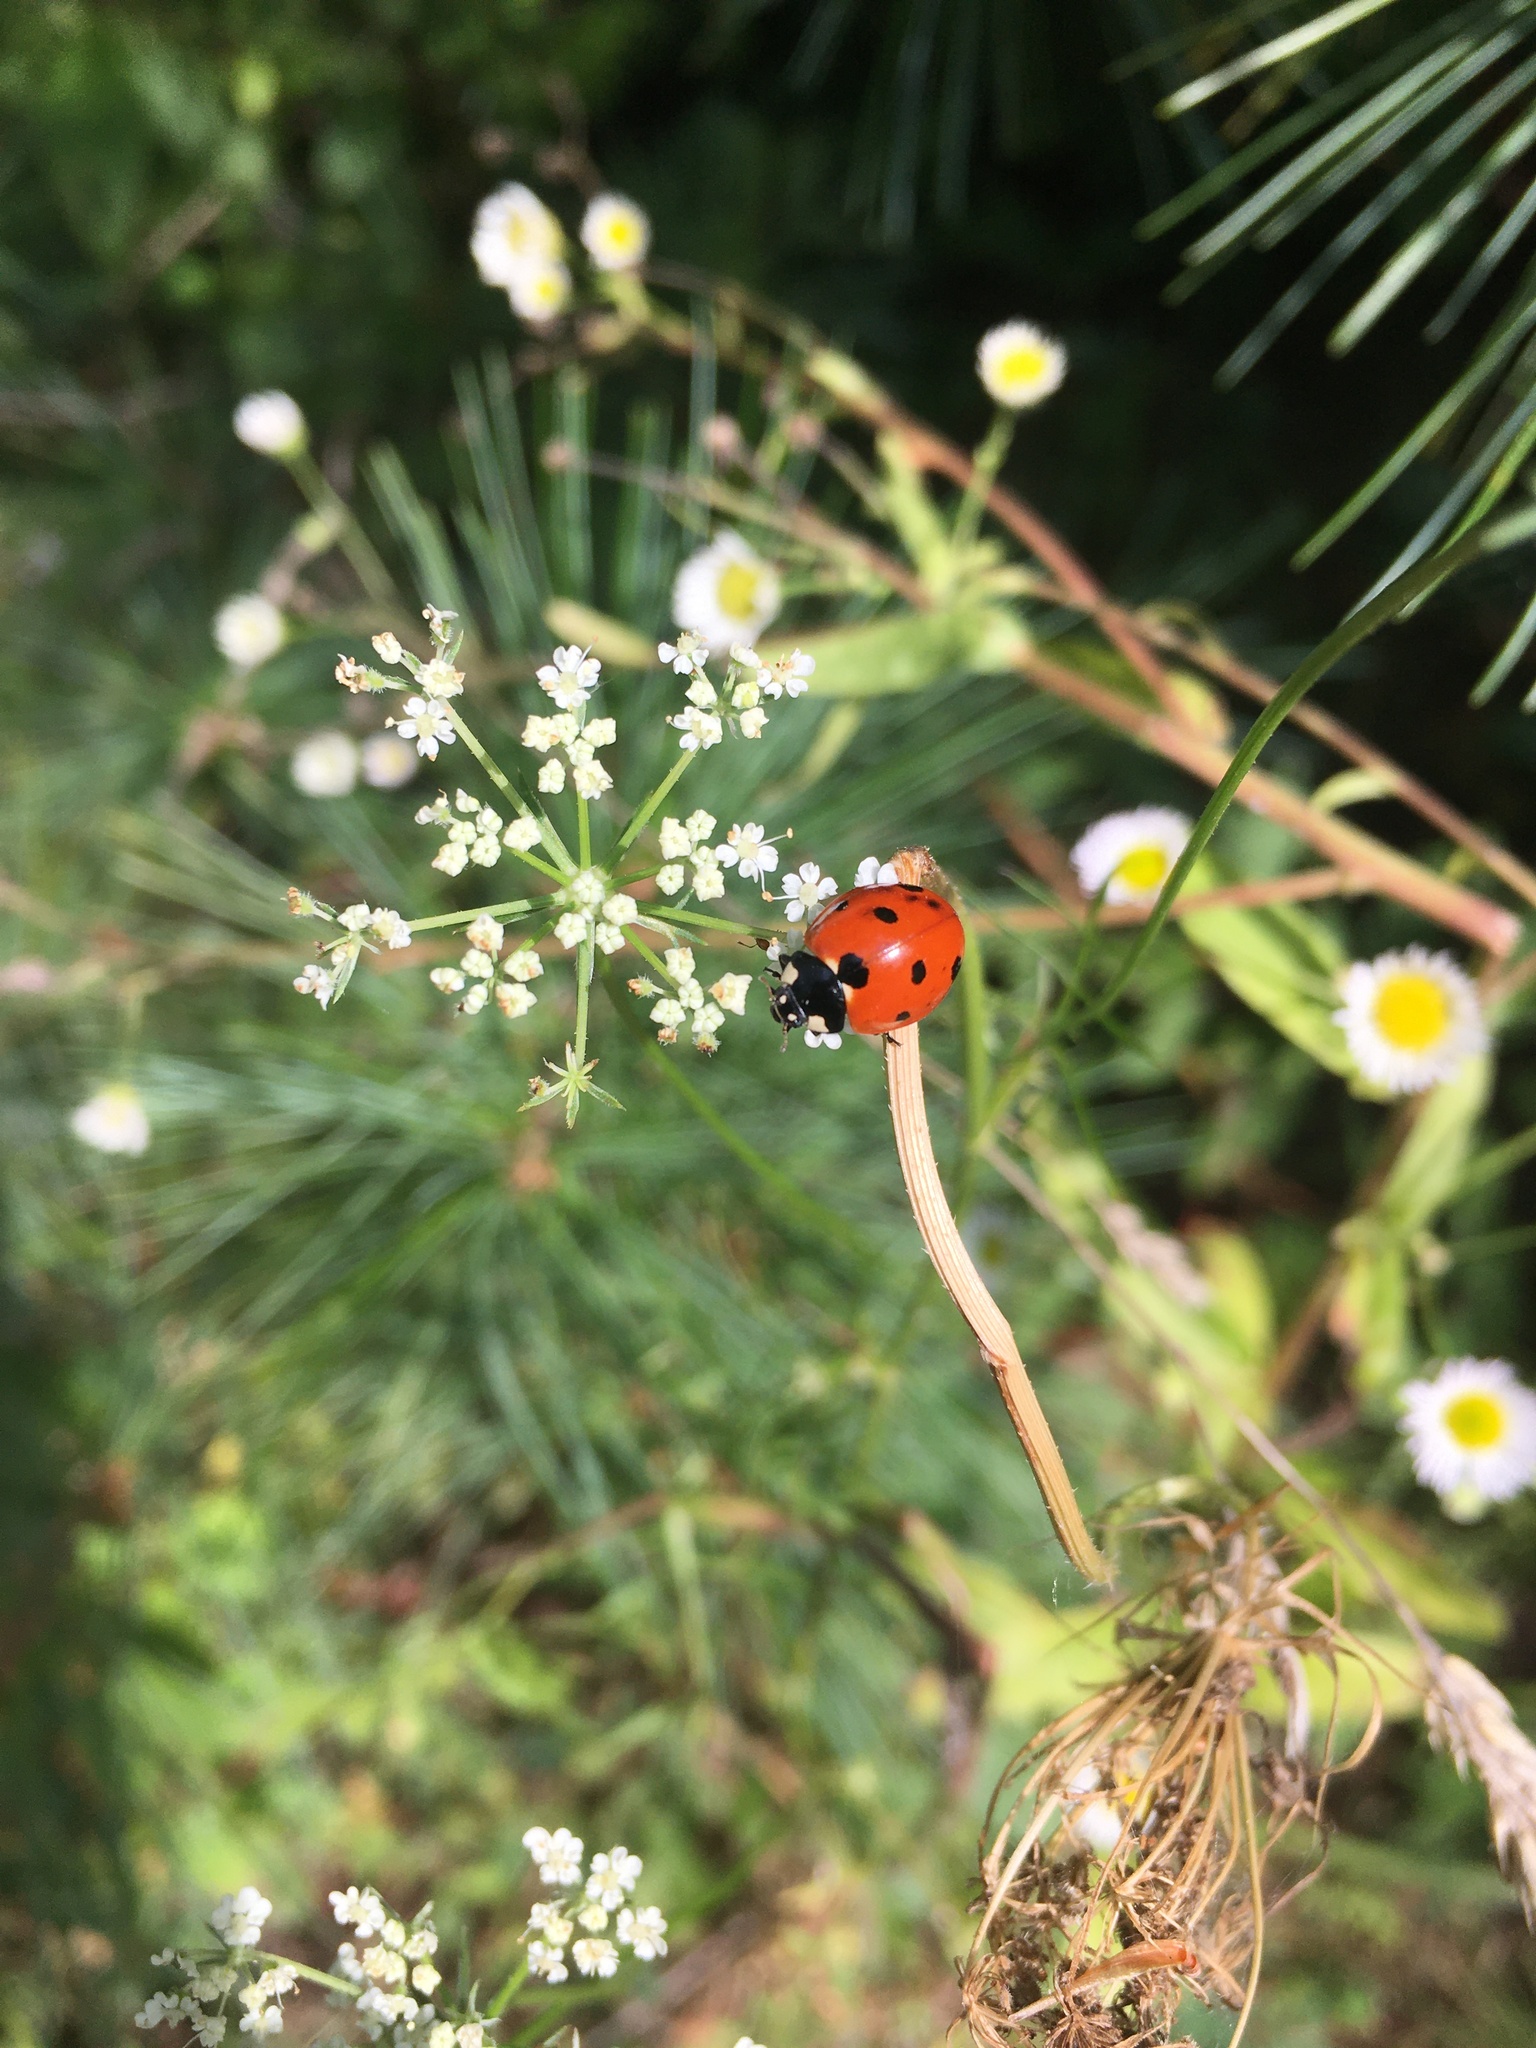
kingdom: Animalia
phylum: Arthropoda
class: Insecta
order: Coleoptera
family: Coccinellidae
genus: Coccinella
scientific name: Coccinella septempunctata
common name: Sevenspotted lady beetle
